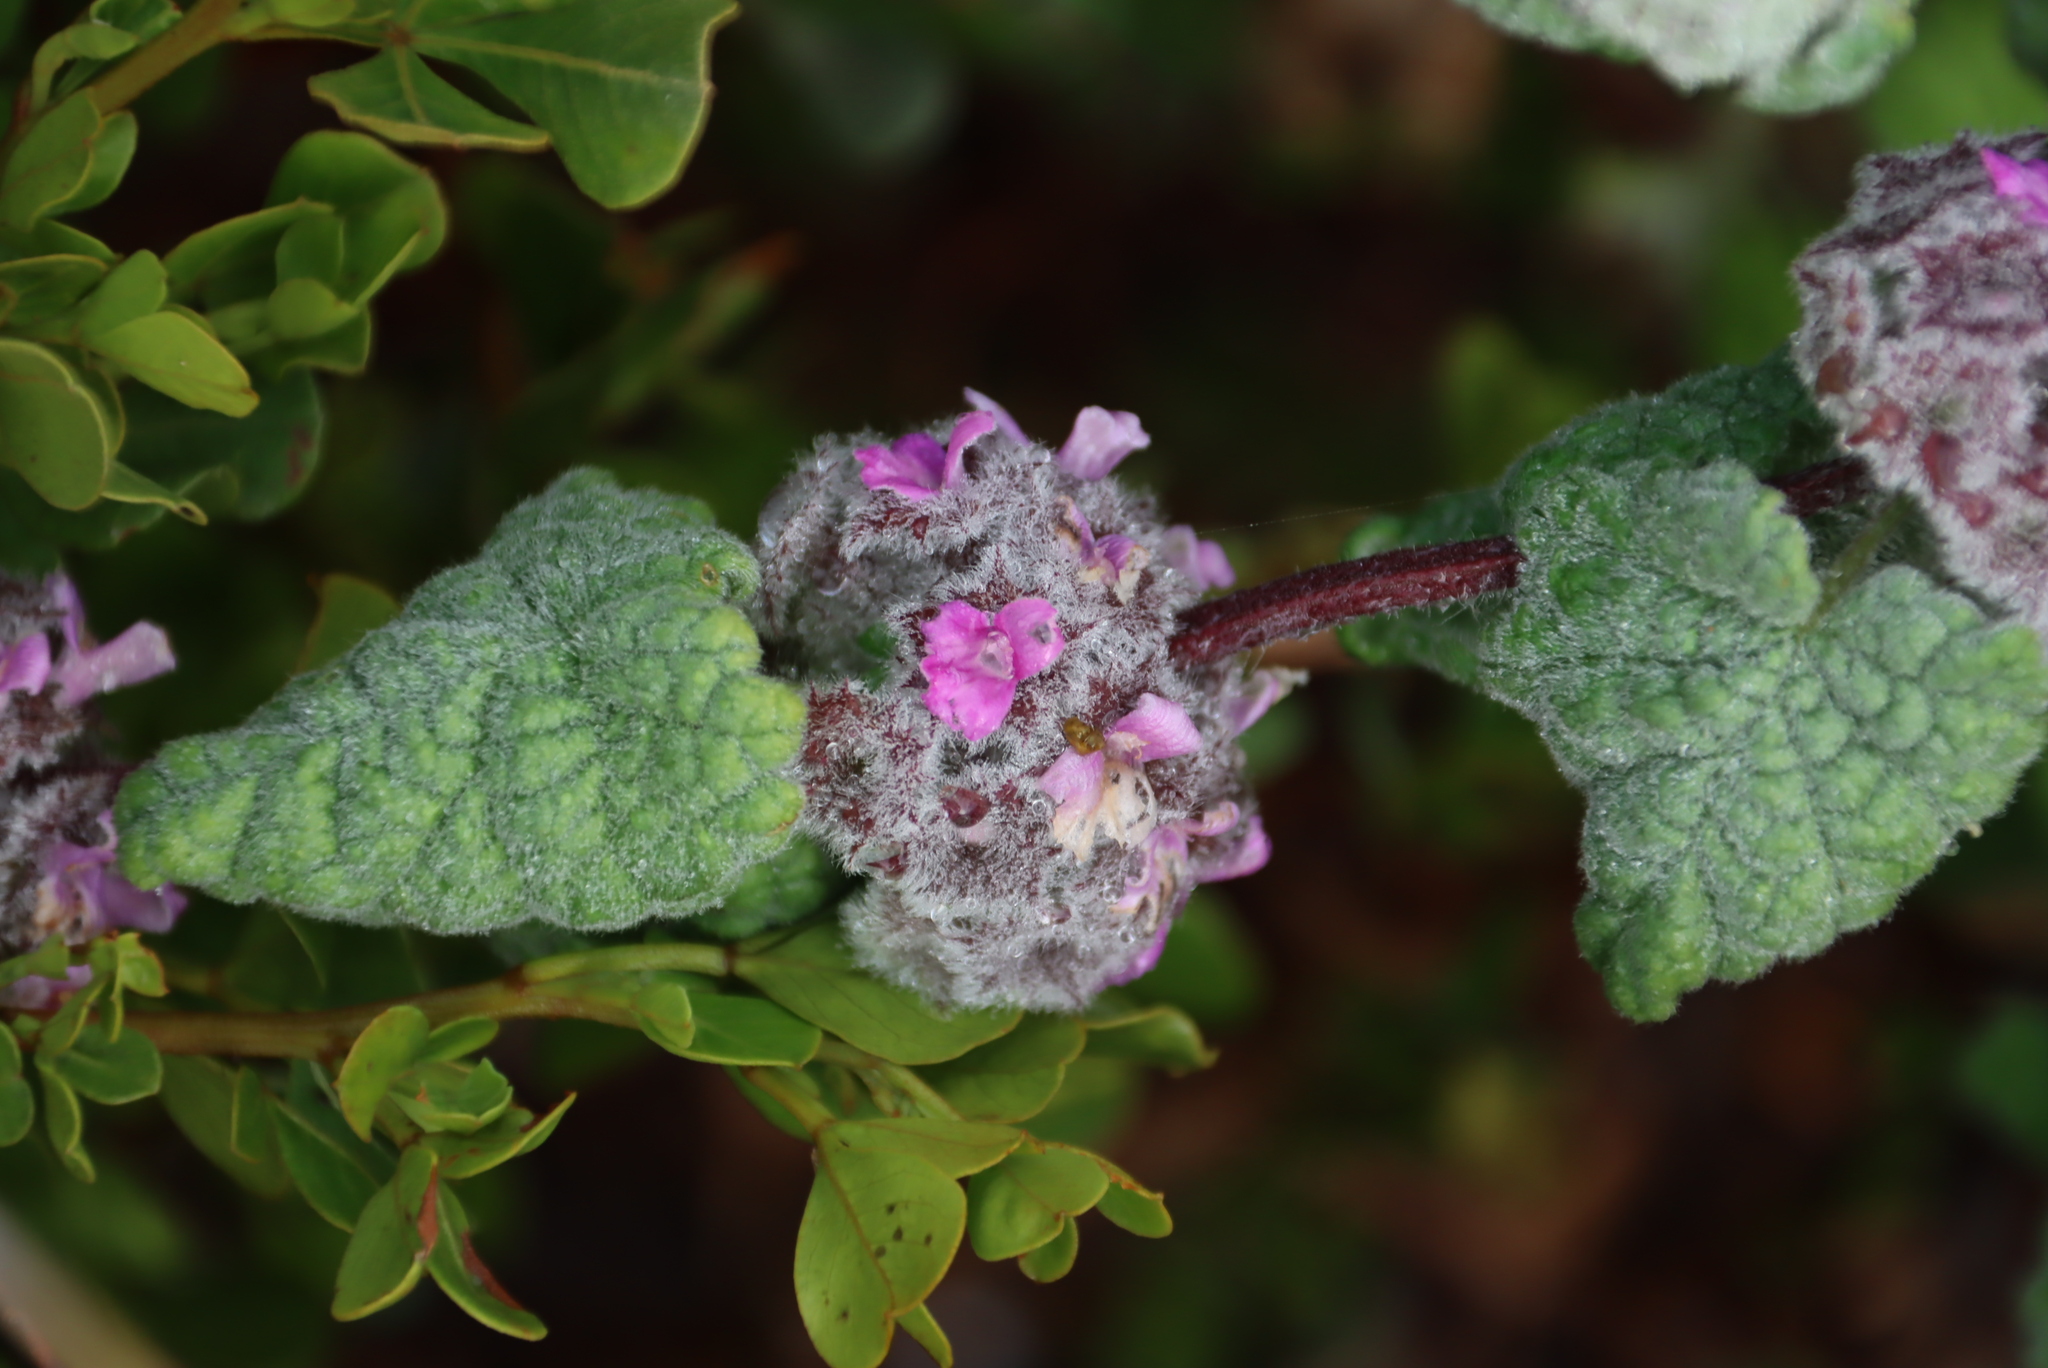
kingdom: Plantae
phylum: Tracheophyta
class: Magnoliopsida
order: Lamiales
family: Lamiaceae
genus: Pseudodictamnus
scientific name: Pseudodictamnus africanus
